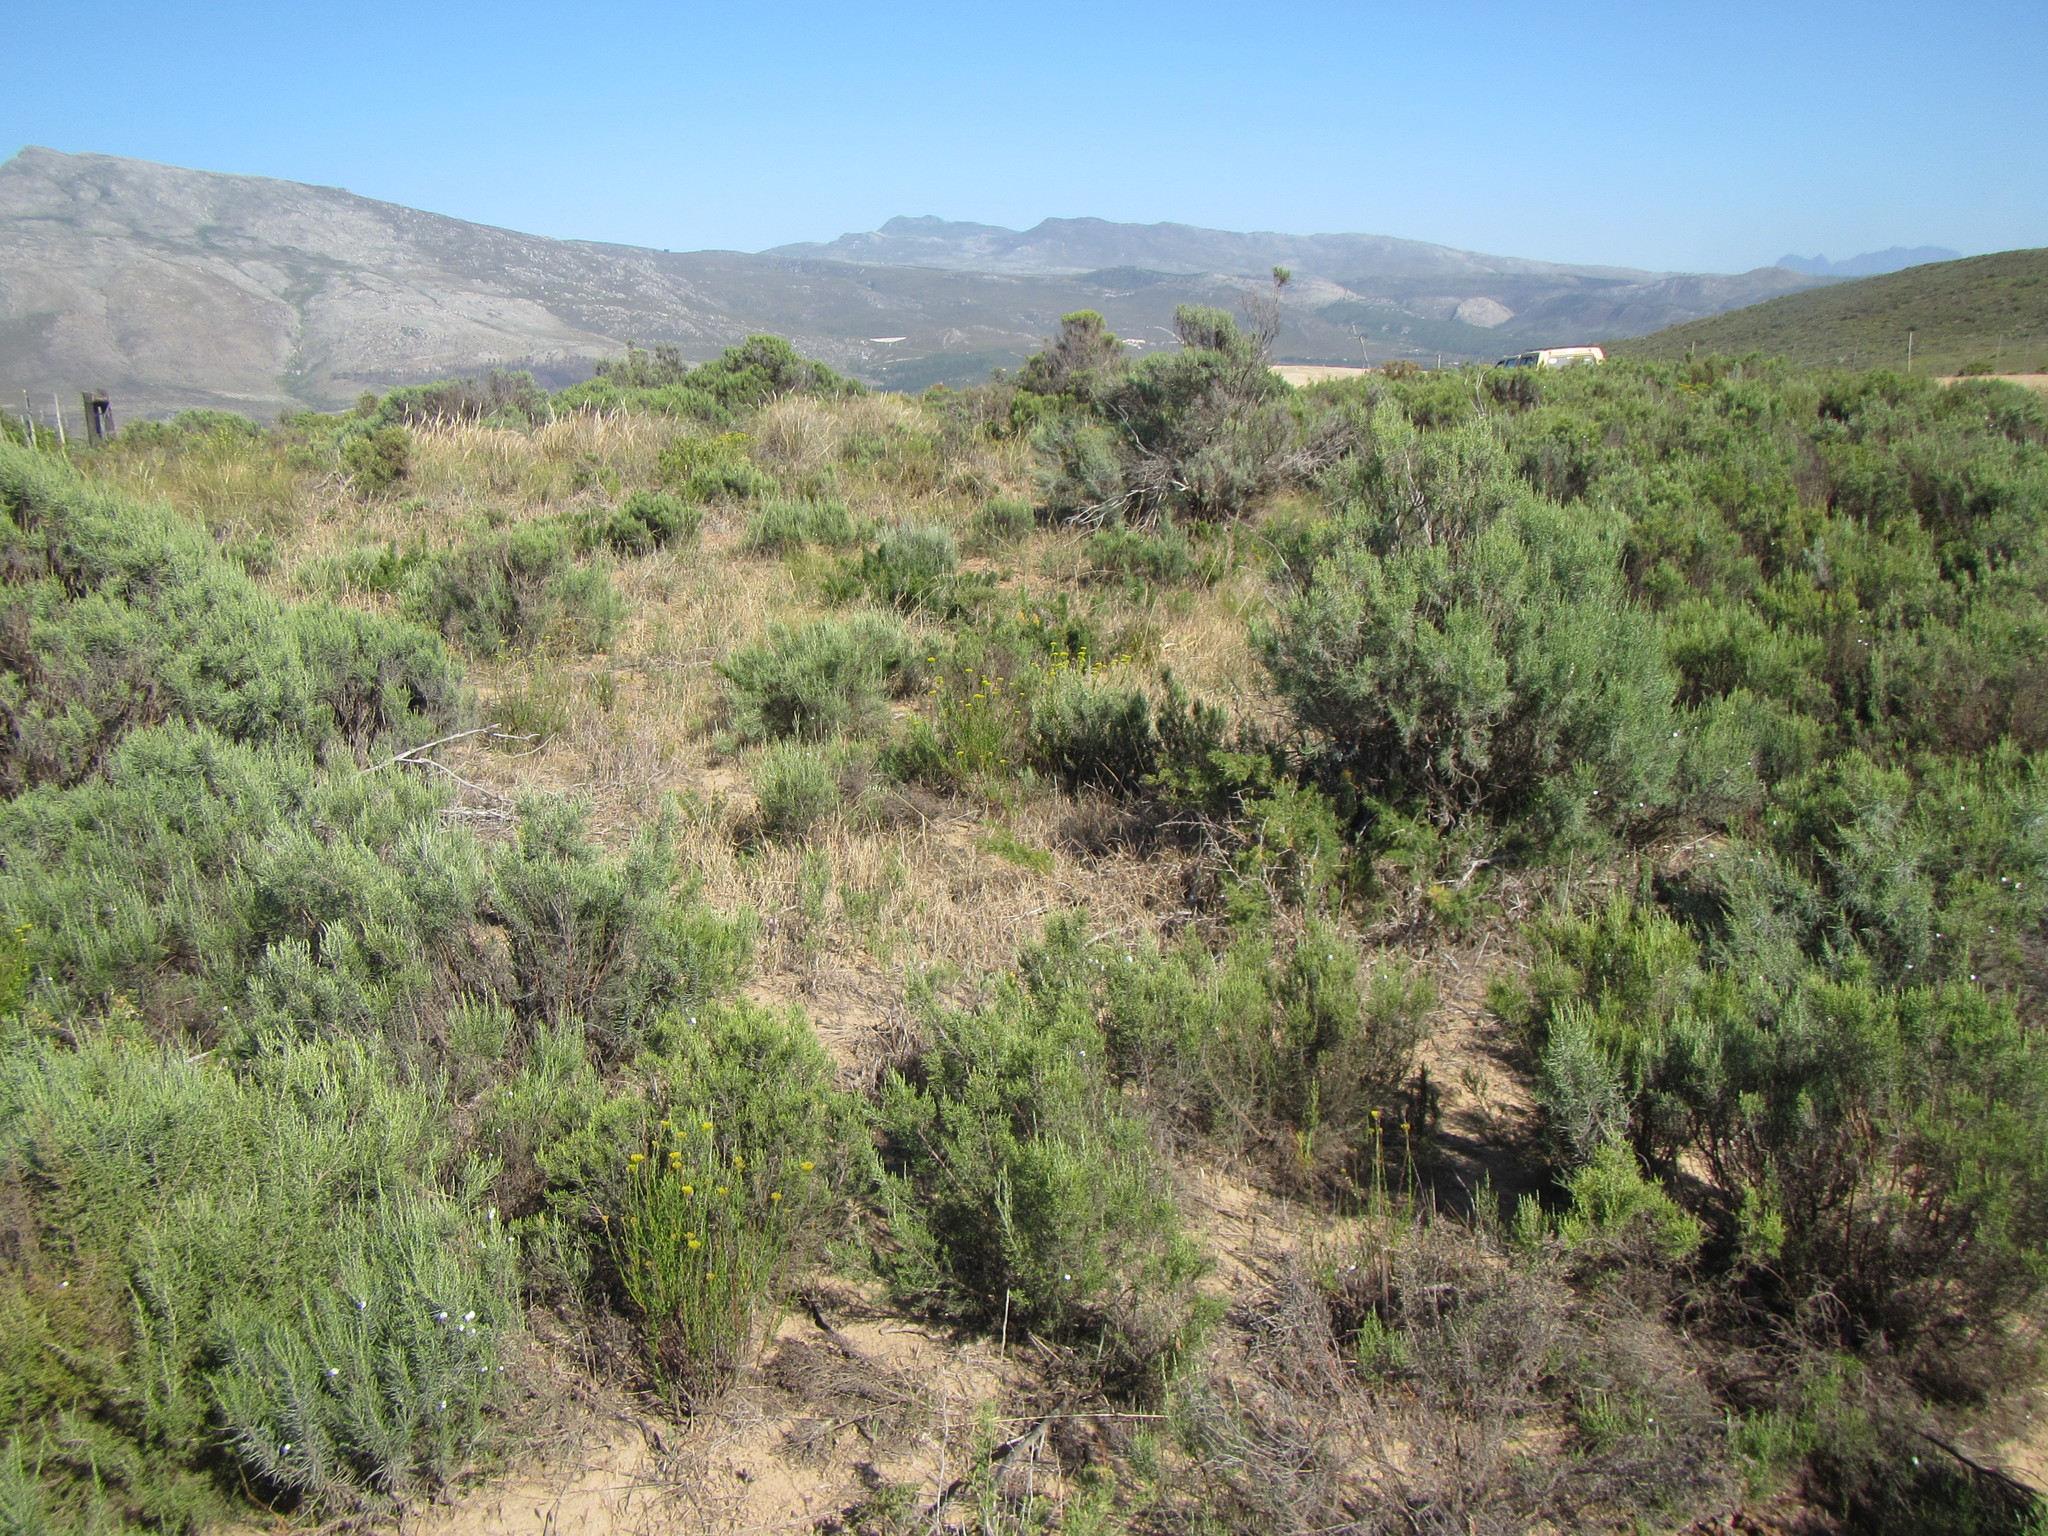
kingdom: Plantae
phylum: Tracheophyta
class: Magnoliopsida
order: Asterales
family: Asteraceae
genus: Dicerothamnus
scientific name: Dicerothamnus rhinocerotis
